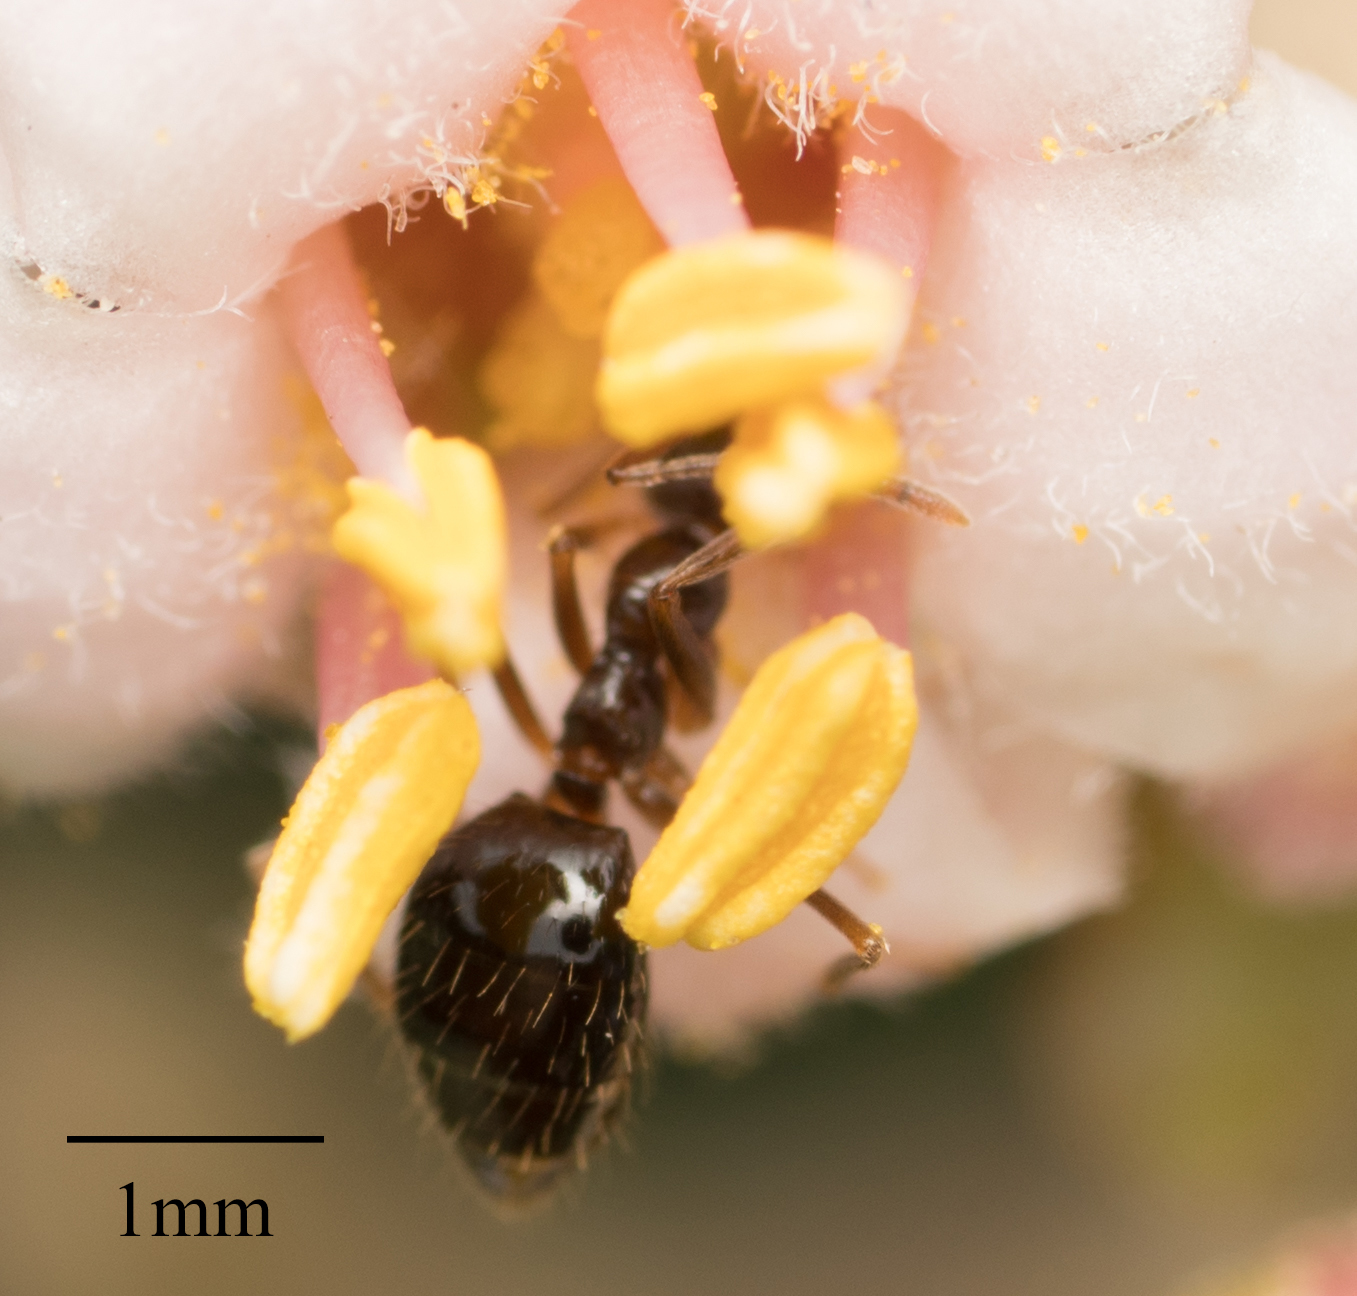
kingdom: Animalia
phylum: Arthropoda
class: Insecta
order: Hymenoptera
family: Formicidae
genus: Prenolepis
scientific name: Prenolepis imparis
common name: Small honey ant
